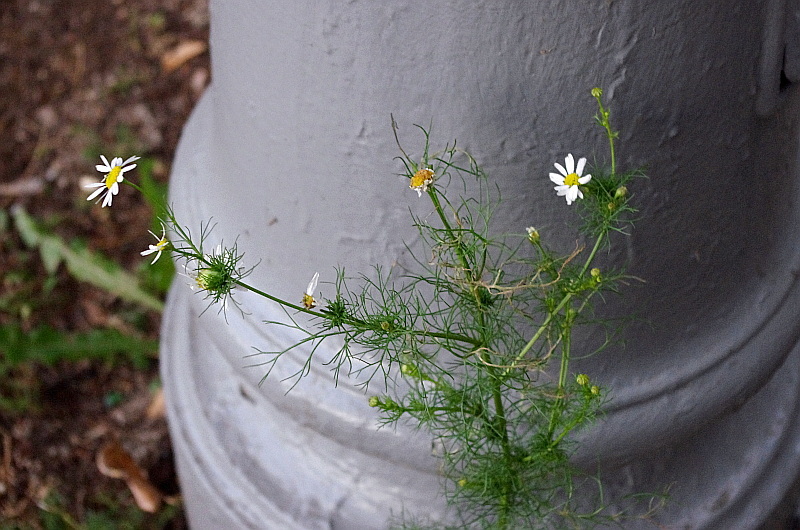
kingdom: Plantae
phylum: Tracheophyta
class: Magnoliopsida
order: Asterales
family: Asteraceae
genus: Tripleurospermum
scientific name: Tripleurospermum inodorum
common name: Scentless mayweed
